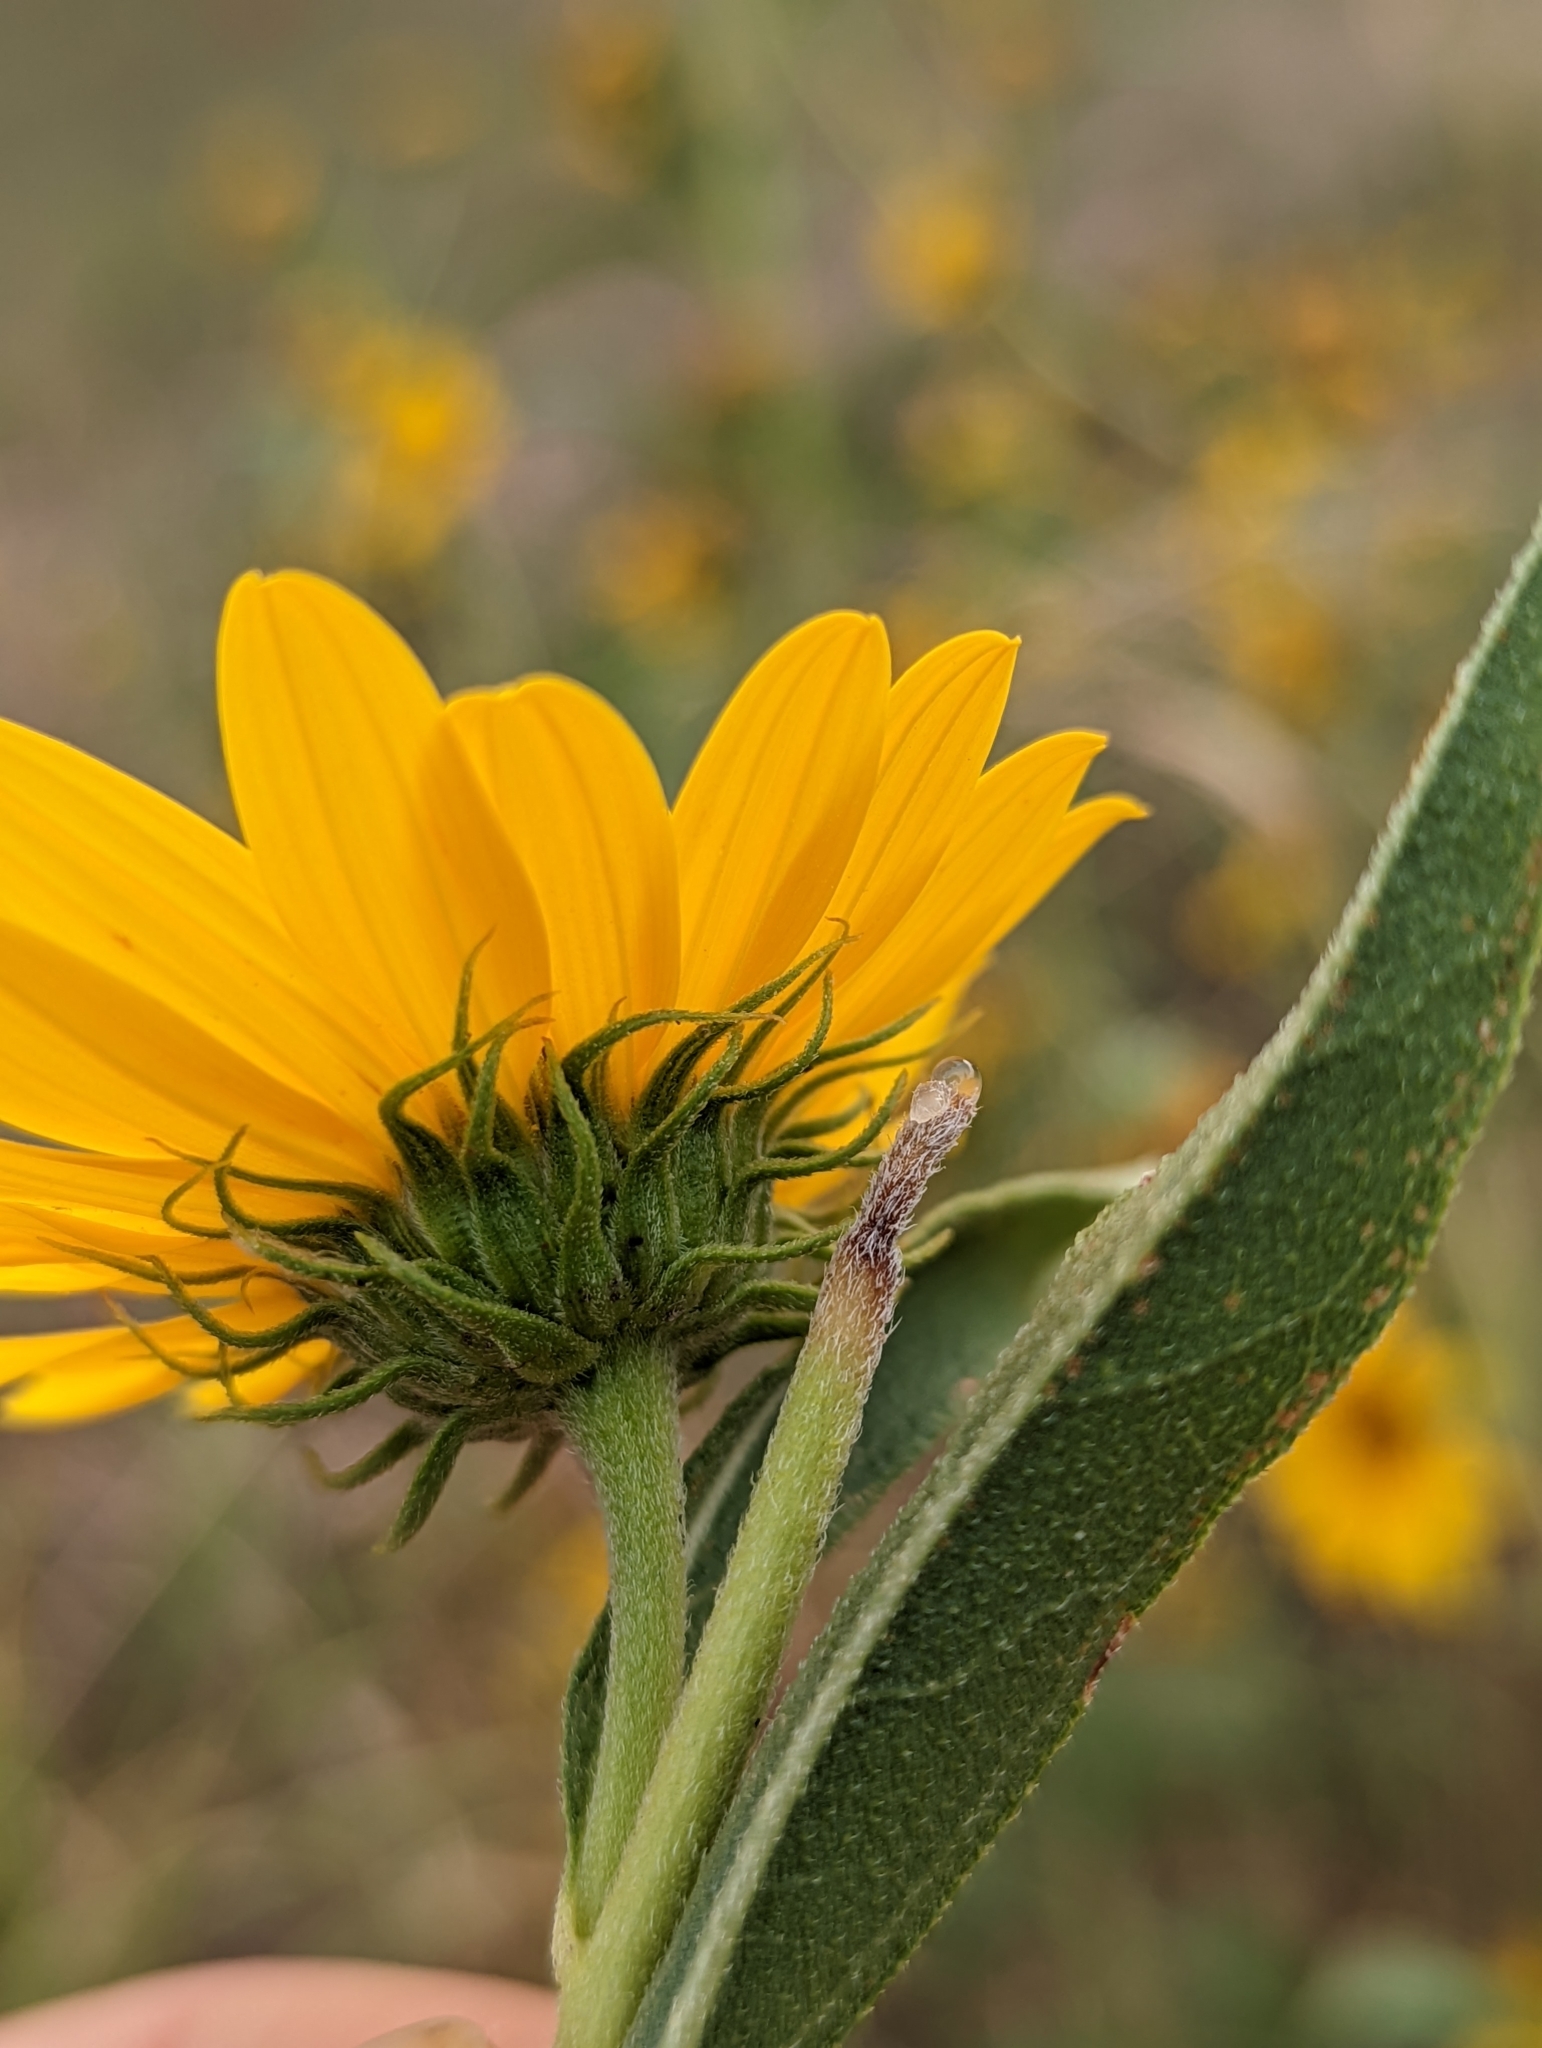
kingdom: Plantae
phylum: Tracheophyta
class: Magnoliopsida
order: Asterales
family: Asteraceae
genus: Helianthus
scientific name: Helianthus maximiliani
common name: Maximilian's sunflower
